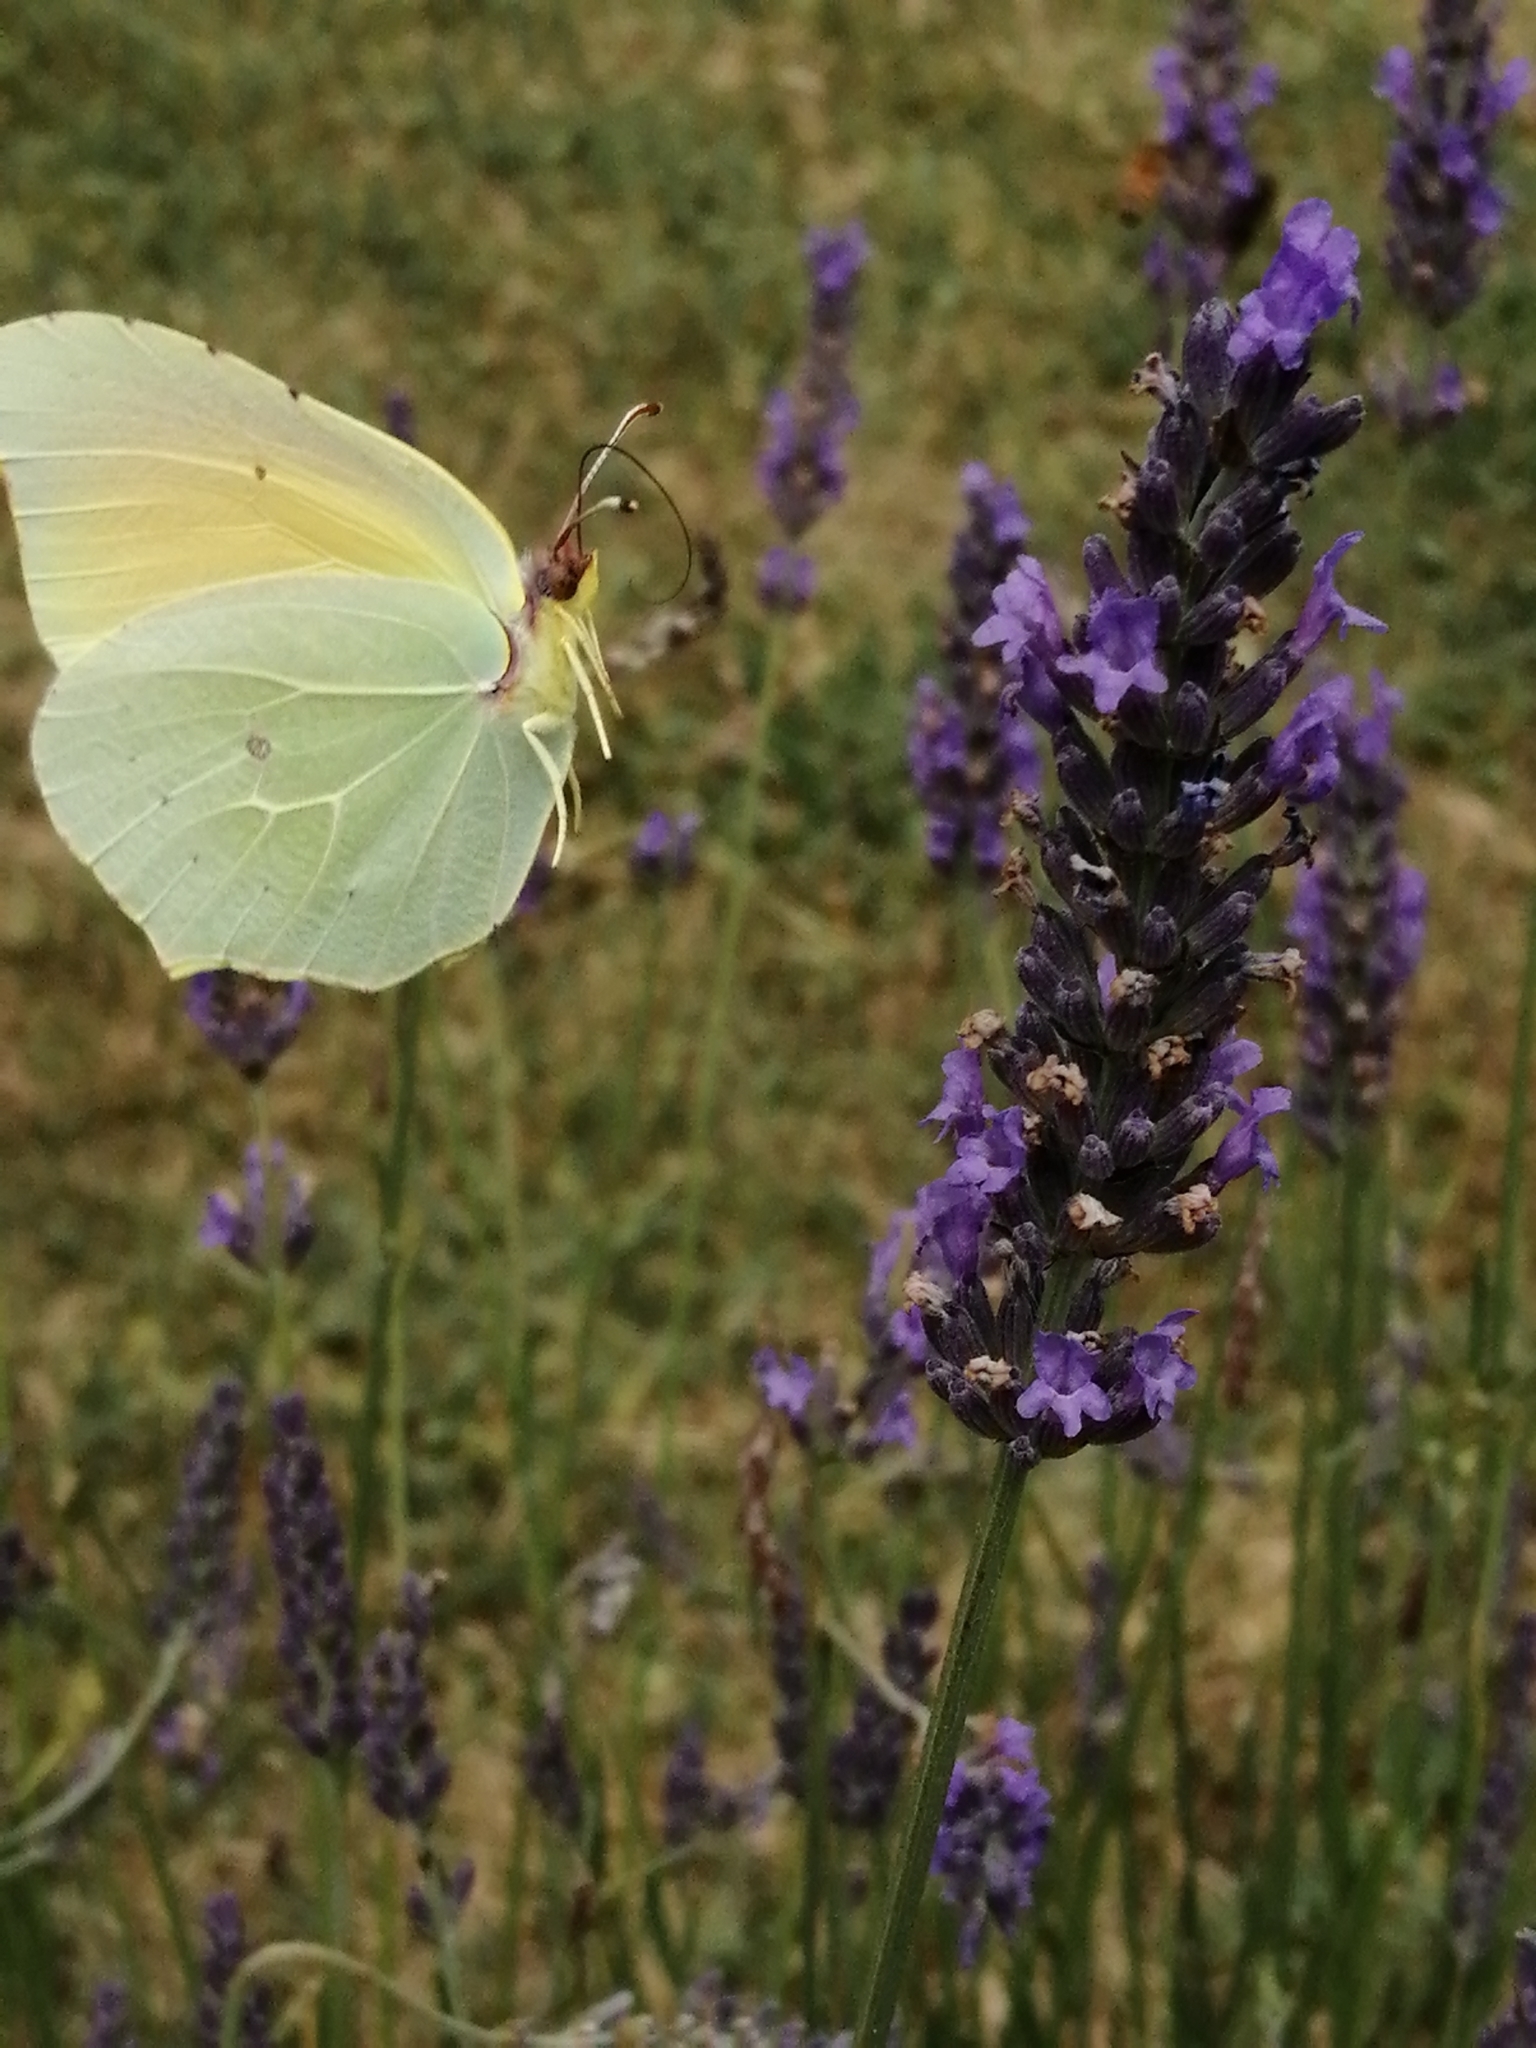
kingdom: Animalia
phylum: Arthropoda
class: Insecta
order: Lepidoptera
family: Pieridae
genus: Gonepteryx
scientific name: Gonepteryx cleopatra
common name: Cleopatra
